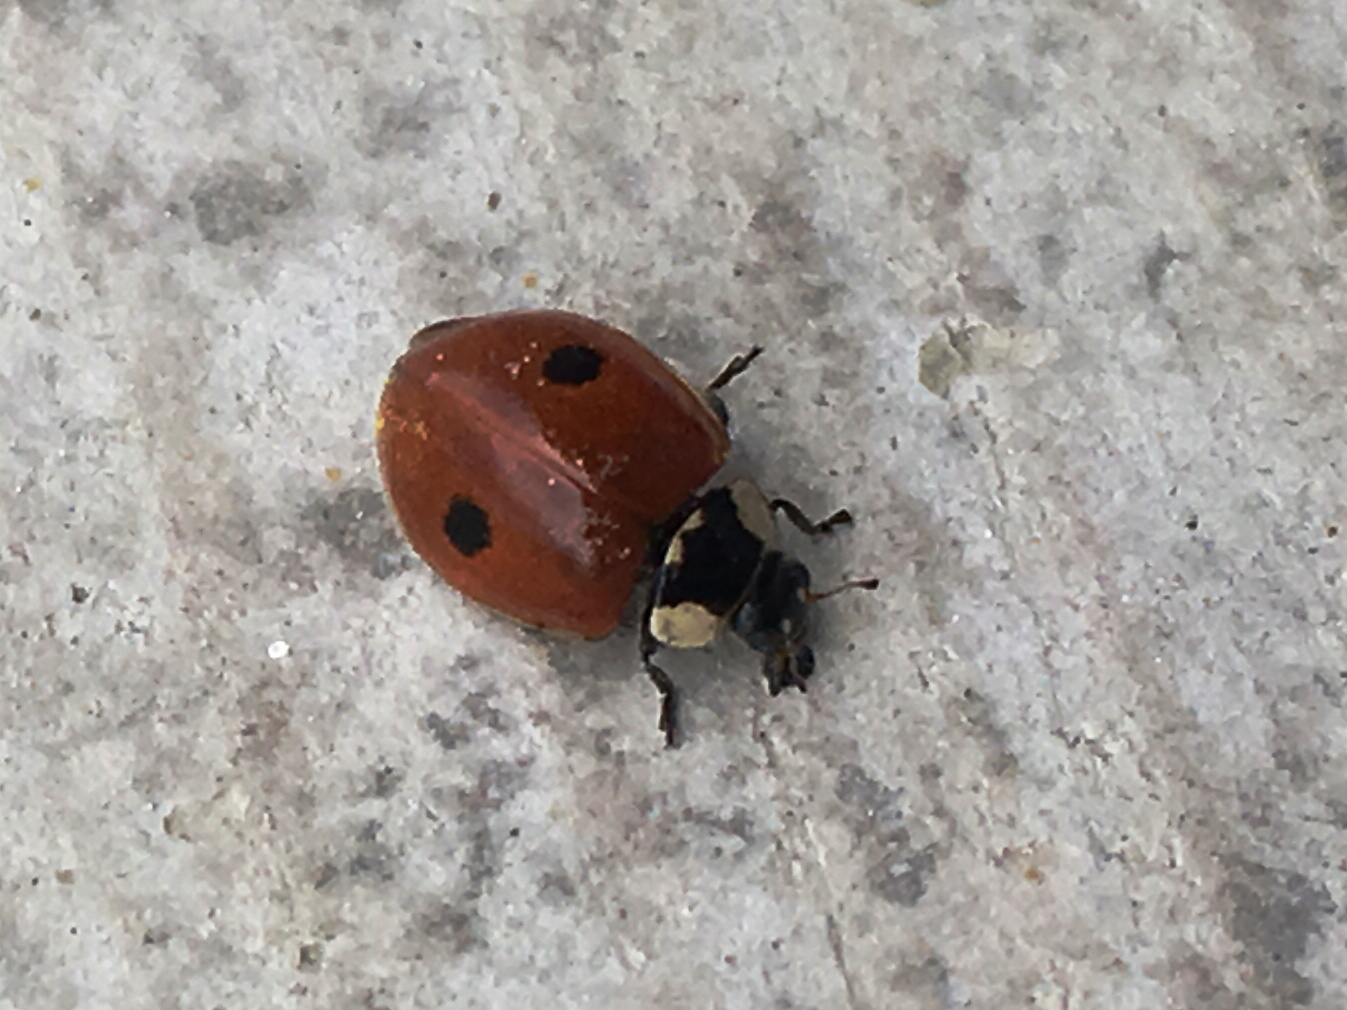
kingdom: Animalia
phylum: Arthropoda
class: Insecta
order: Coleoptera
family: Coccinellidae
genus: Adalia
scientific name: Adalia bipunctata
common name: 2-spot ladybird
